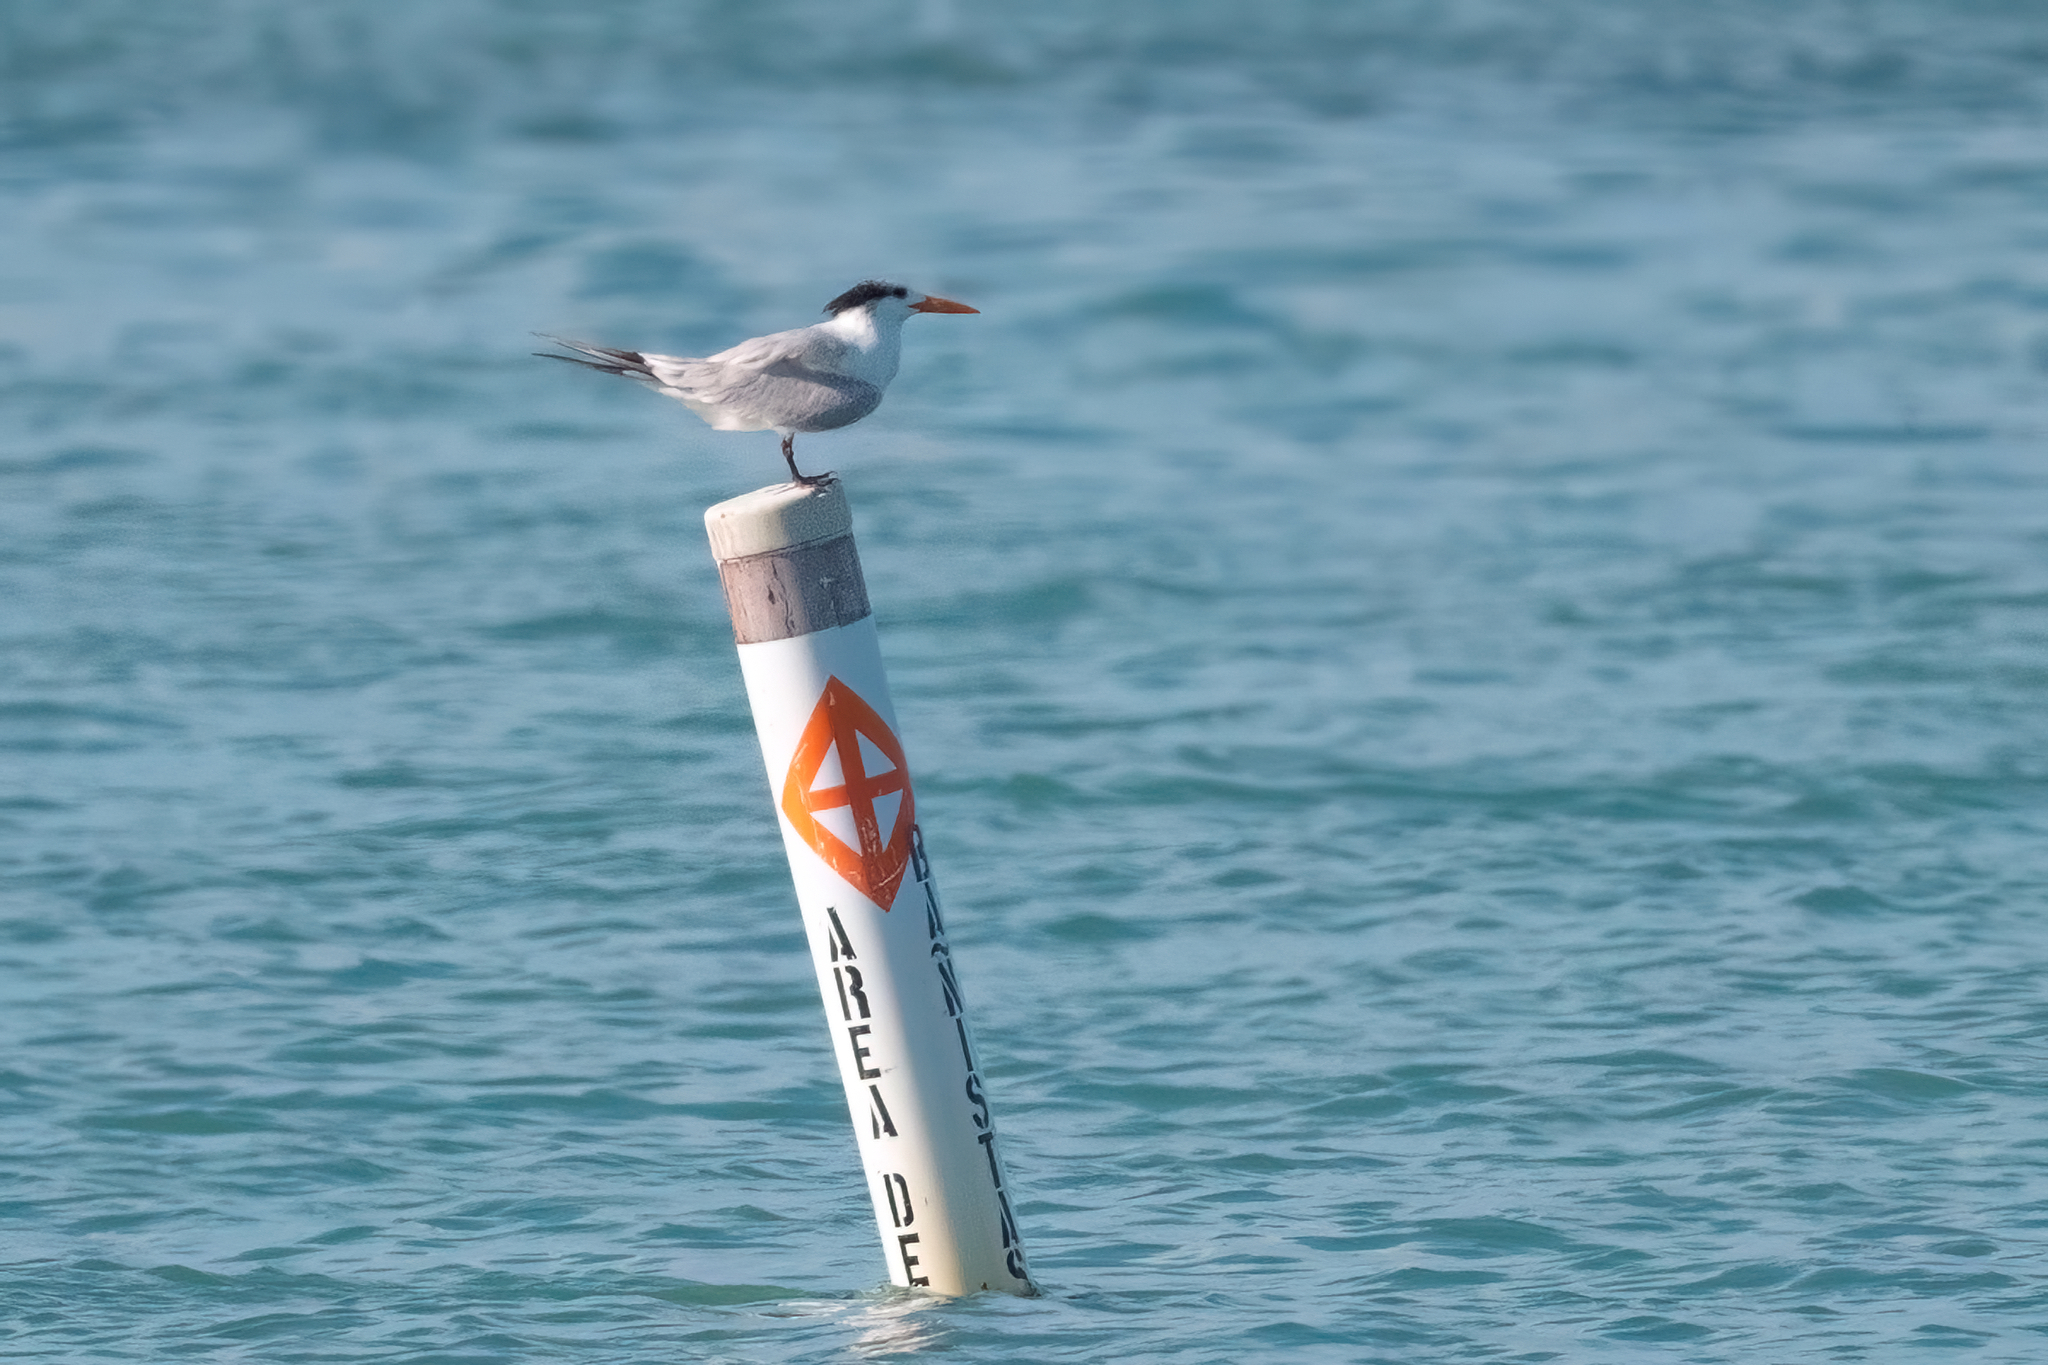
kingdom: Animalia
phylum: Chordata
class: Aves
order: Charadriiformes
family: Laridae
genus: Thalasseus
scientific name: Thalasseus maximus
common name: Royal tern
